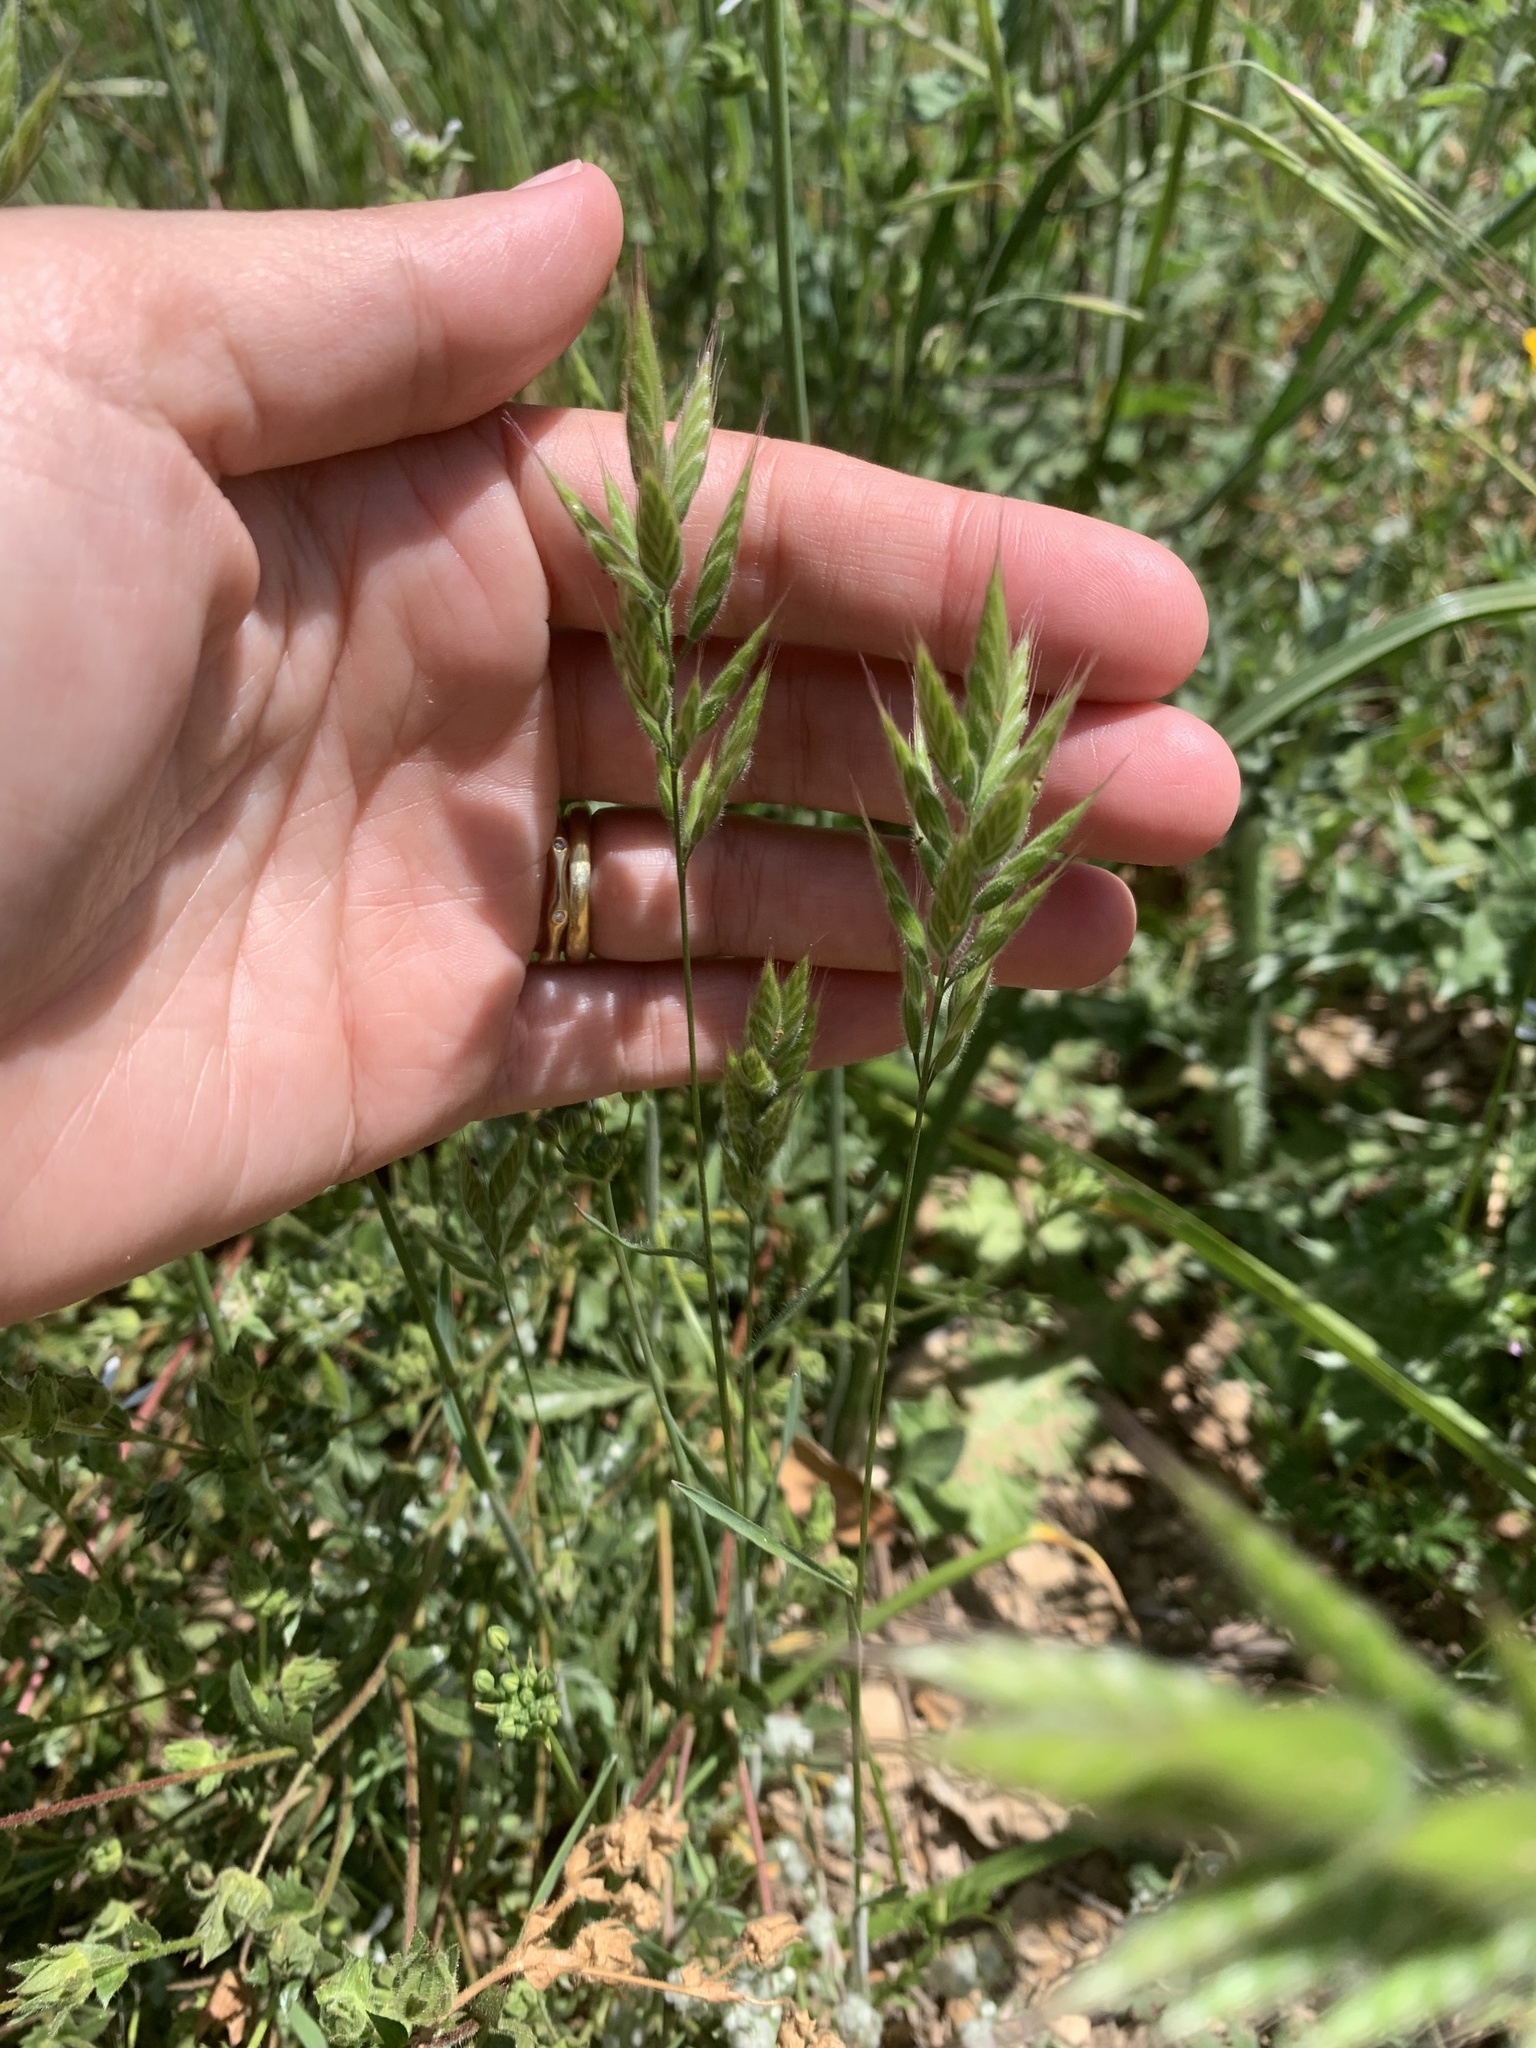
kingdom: Plantae
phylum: Tracheophyta
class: Liliopsida
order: Poales
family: Poaceae
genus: Bromus
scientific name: Bromus hordeaceus
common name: Soft brome
